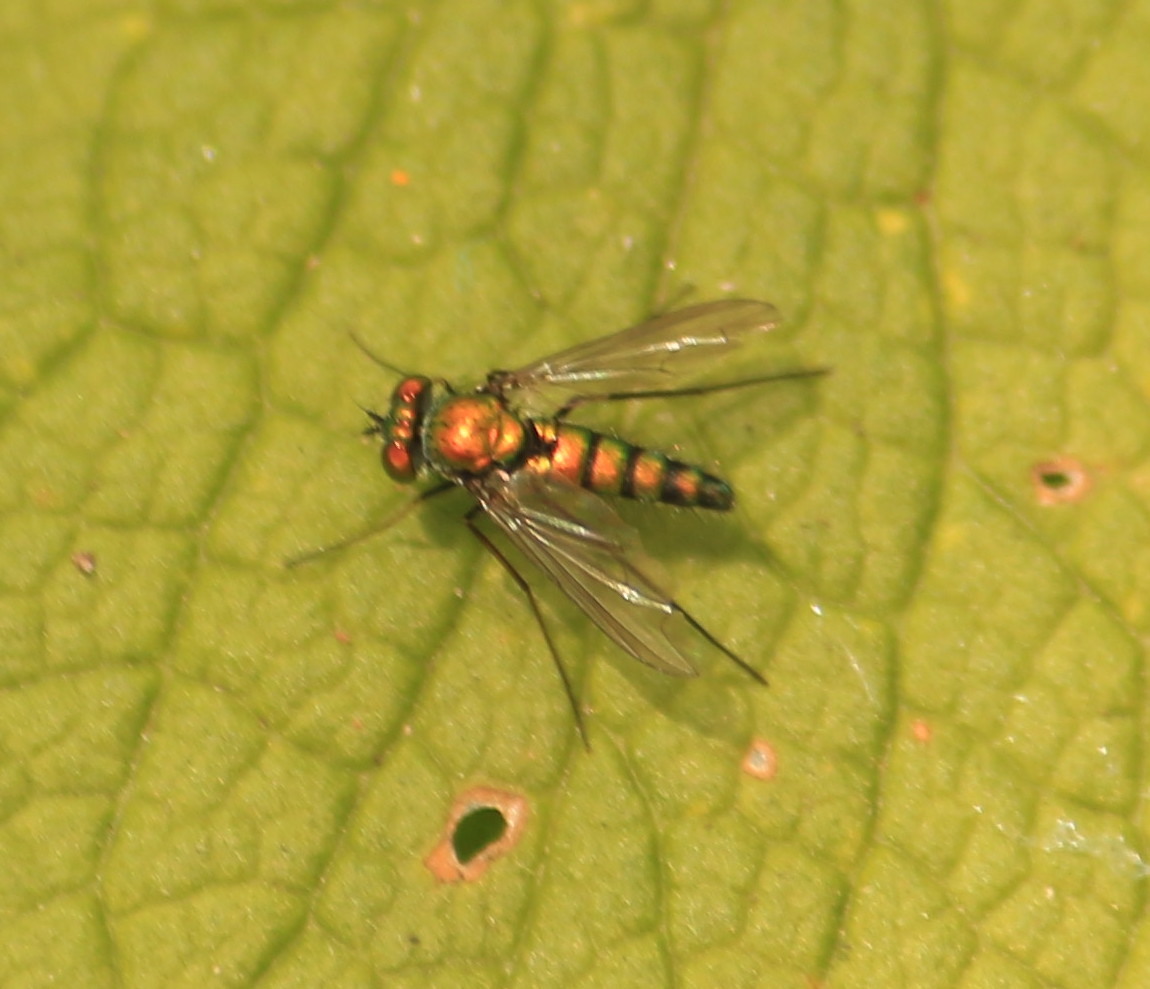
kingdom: Animalia
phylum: Arthropoda
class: Insecta
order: Diptera
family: Dolichopodidae
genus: Condylostylus
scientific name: Condylostylus longicornis
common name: Long-legged fly
